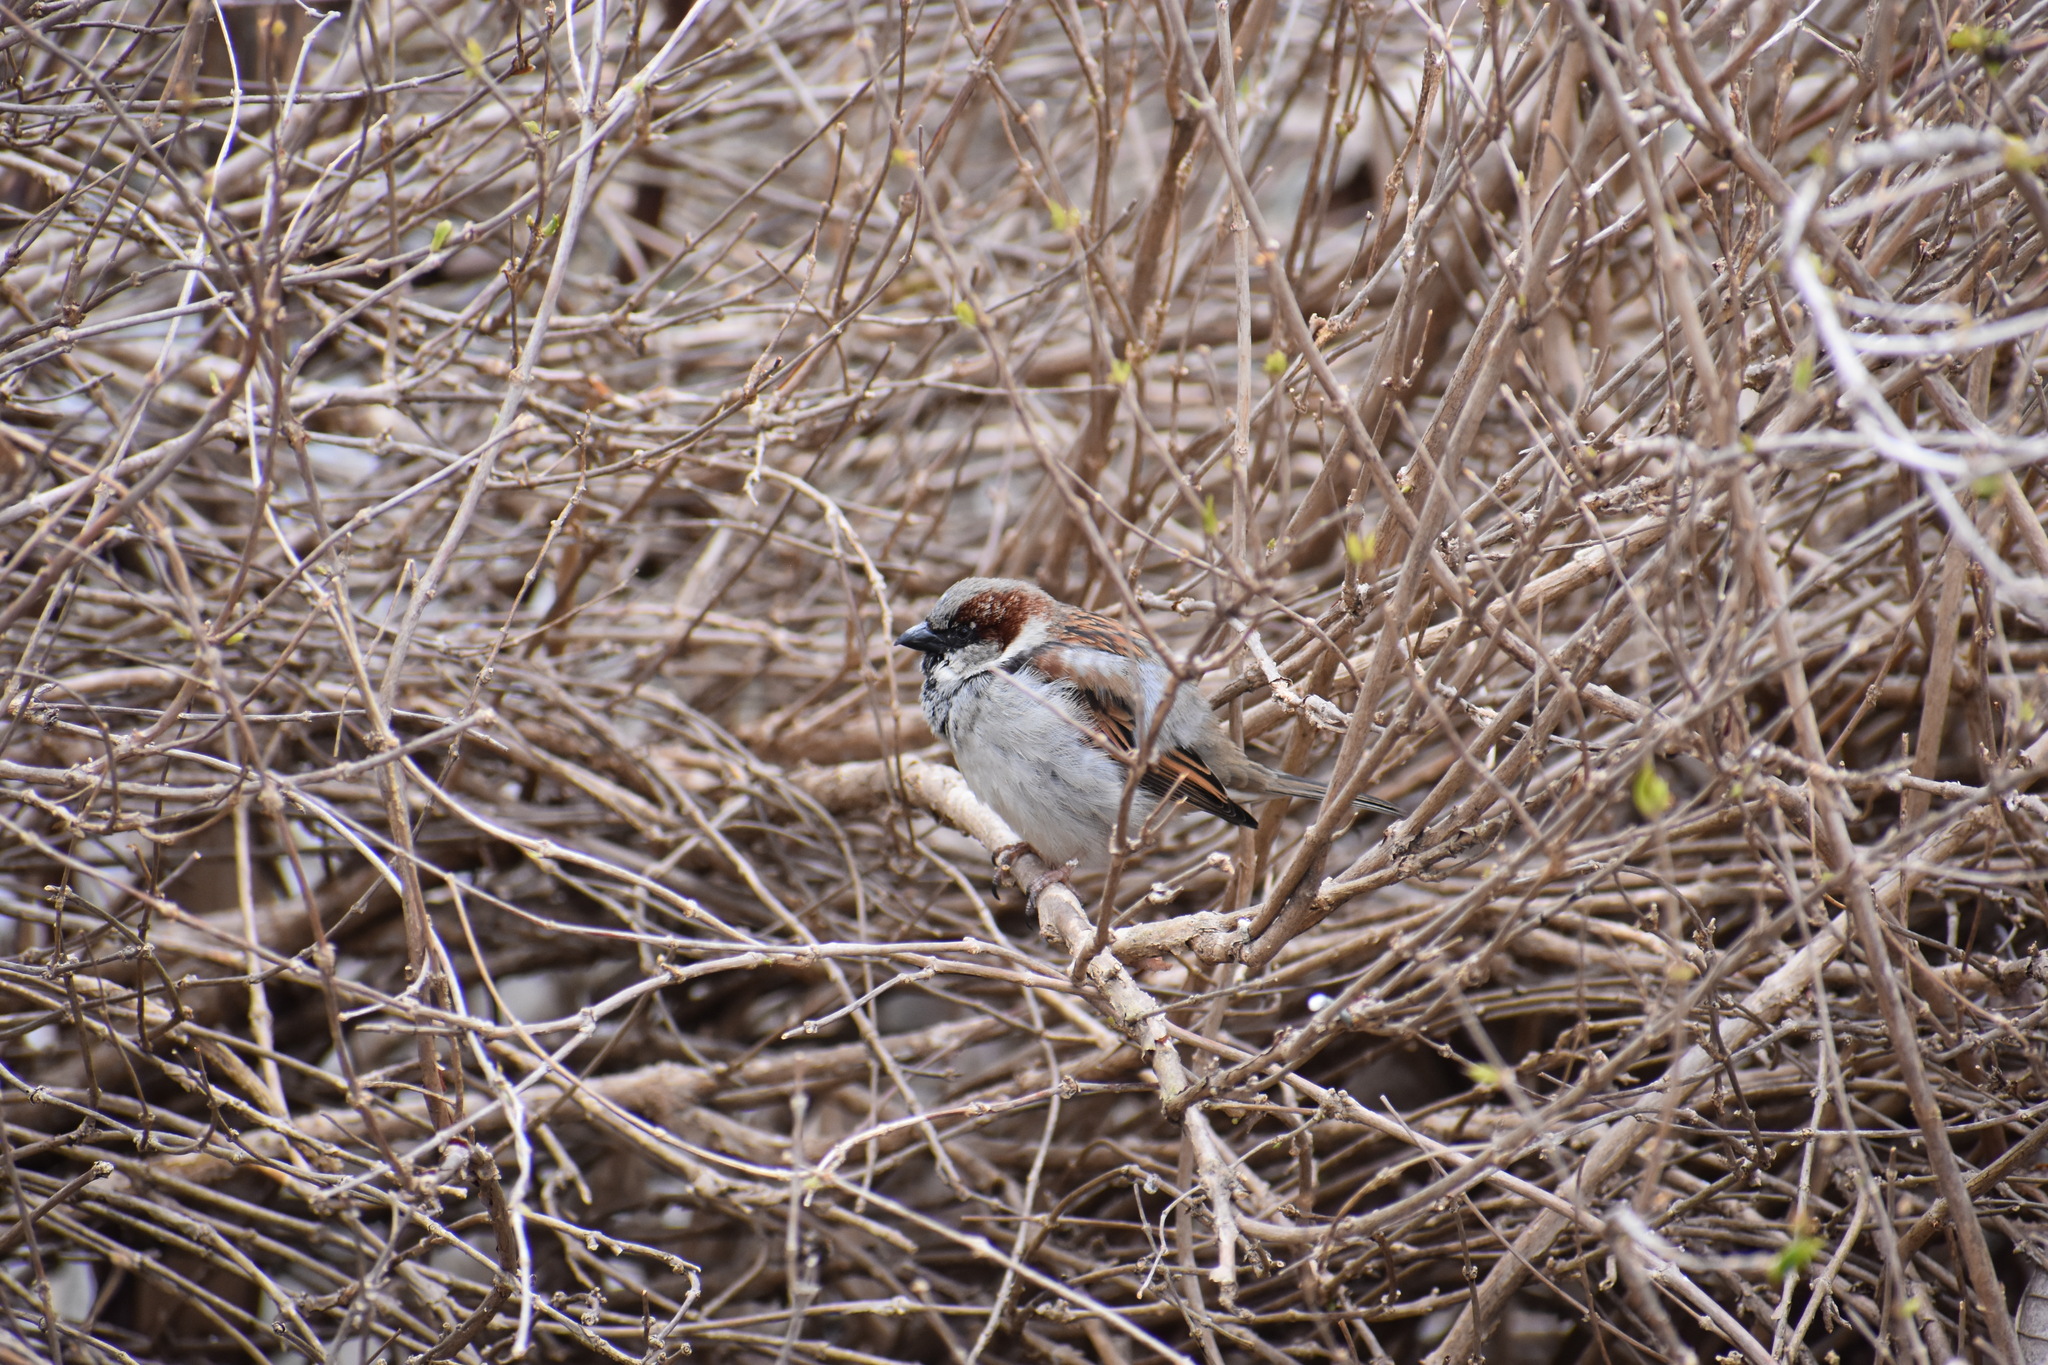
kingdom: Animalia
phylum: Chordata
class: Aves
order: Passeriformes
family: Passeridae
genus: Passer
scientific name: Passer domesticus
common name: House sparrow
